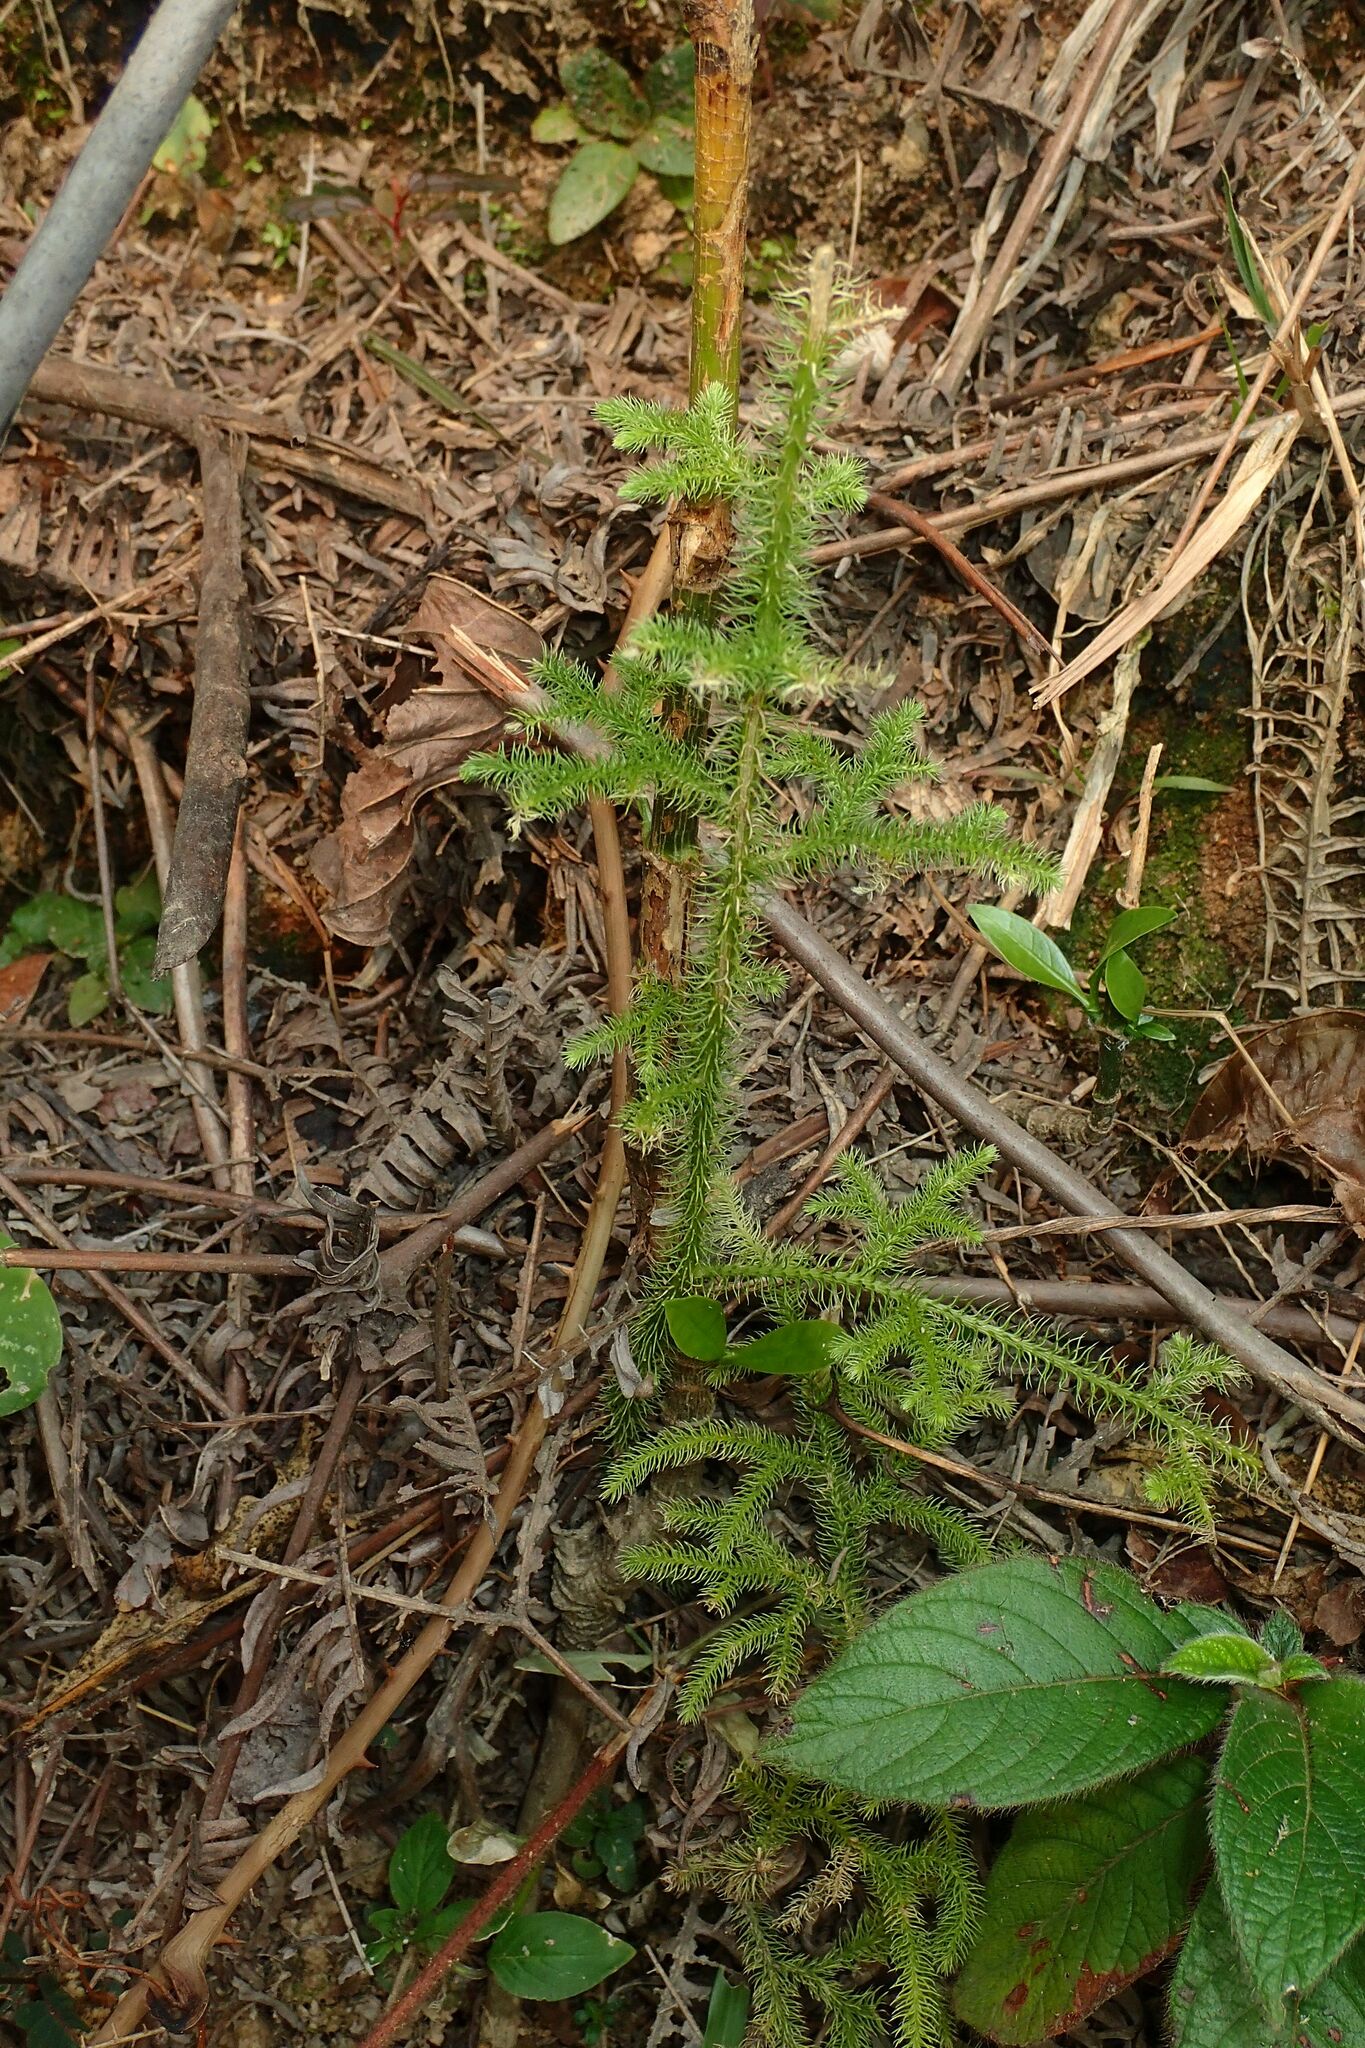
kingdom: Plantae
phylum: Tracheophyta
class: Lycopodiopsida
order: Lycopodiales
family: Lycopodiaceae
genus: Palhinhaea
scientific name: Palhinhaea cernua
